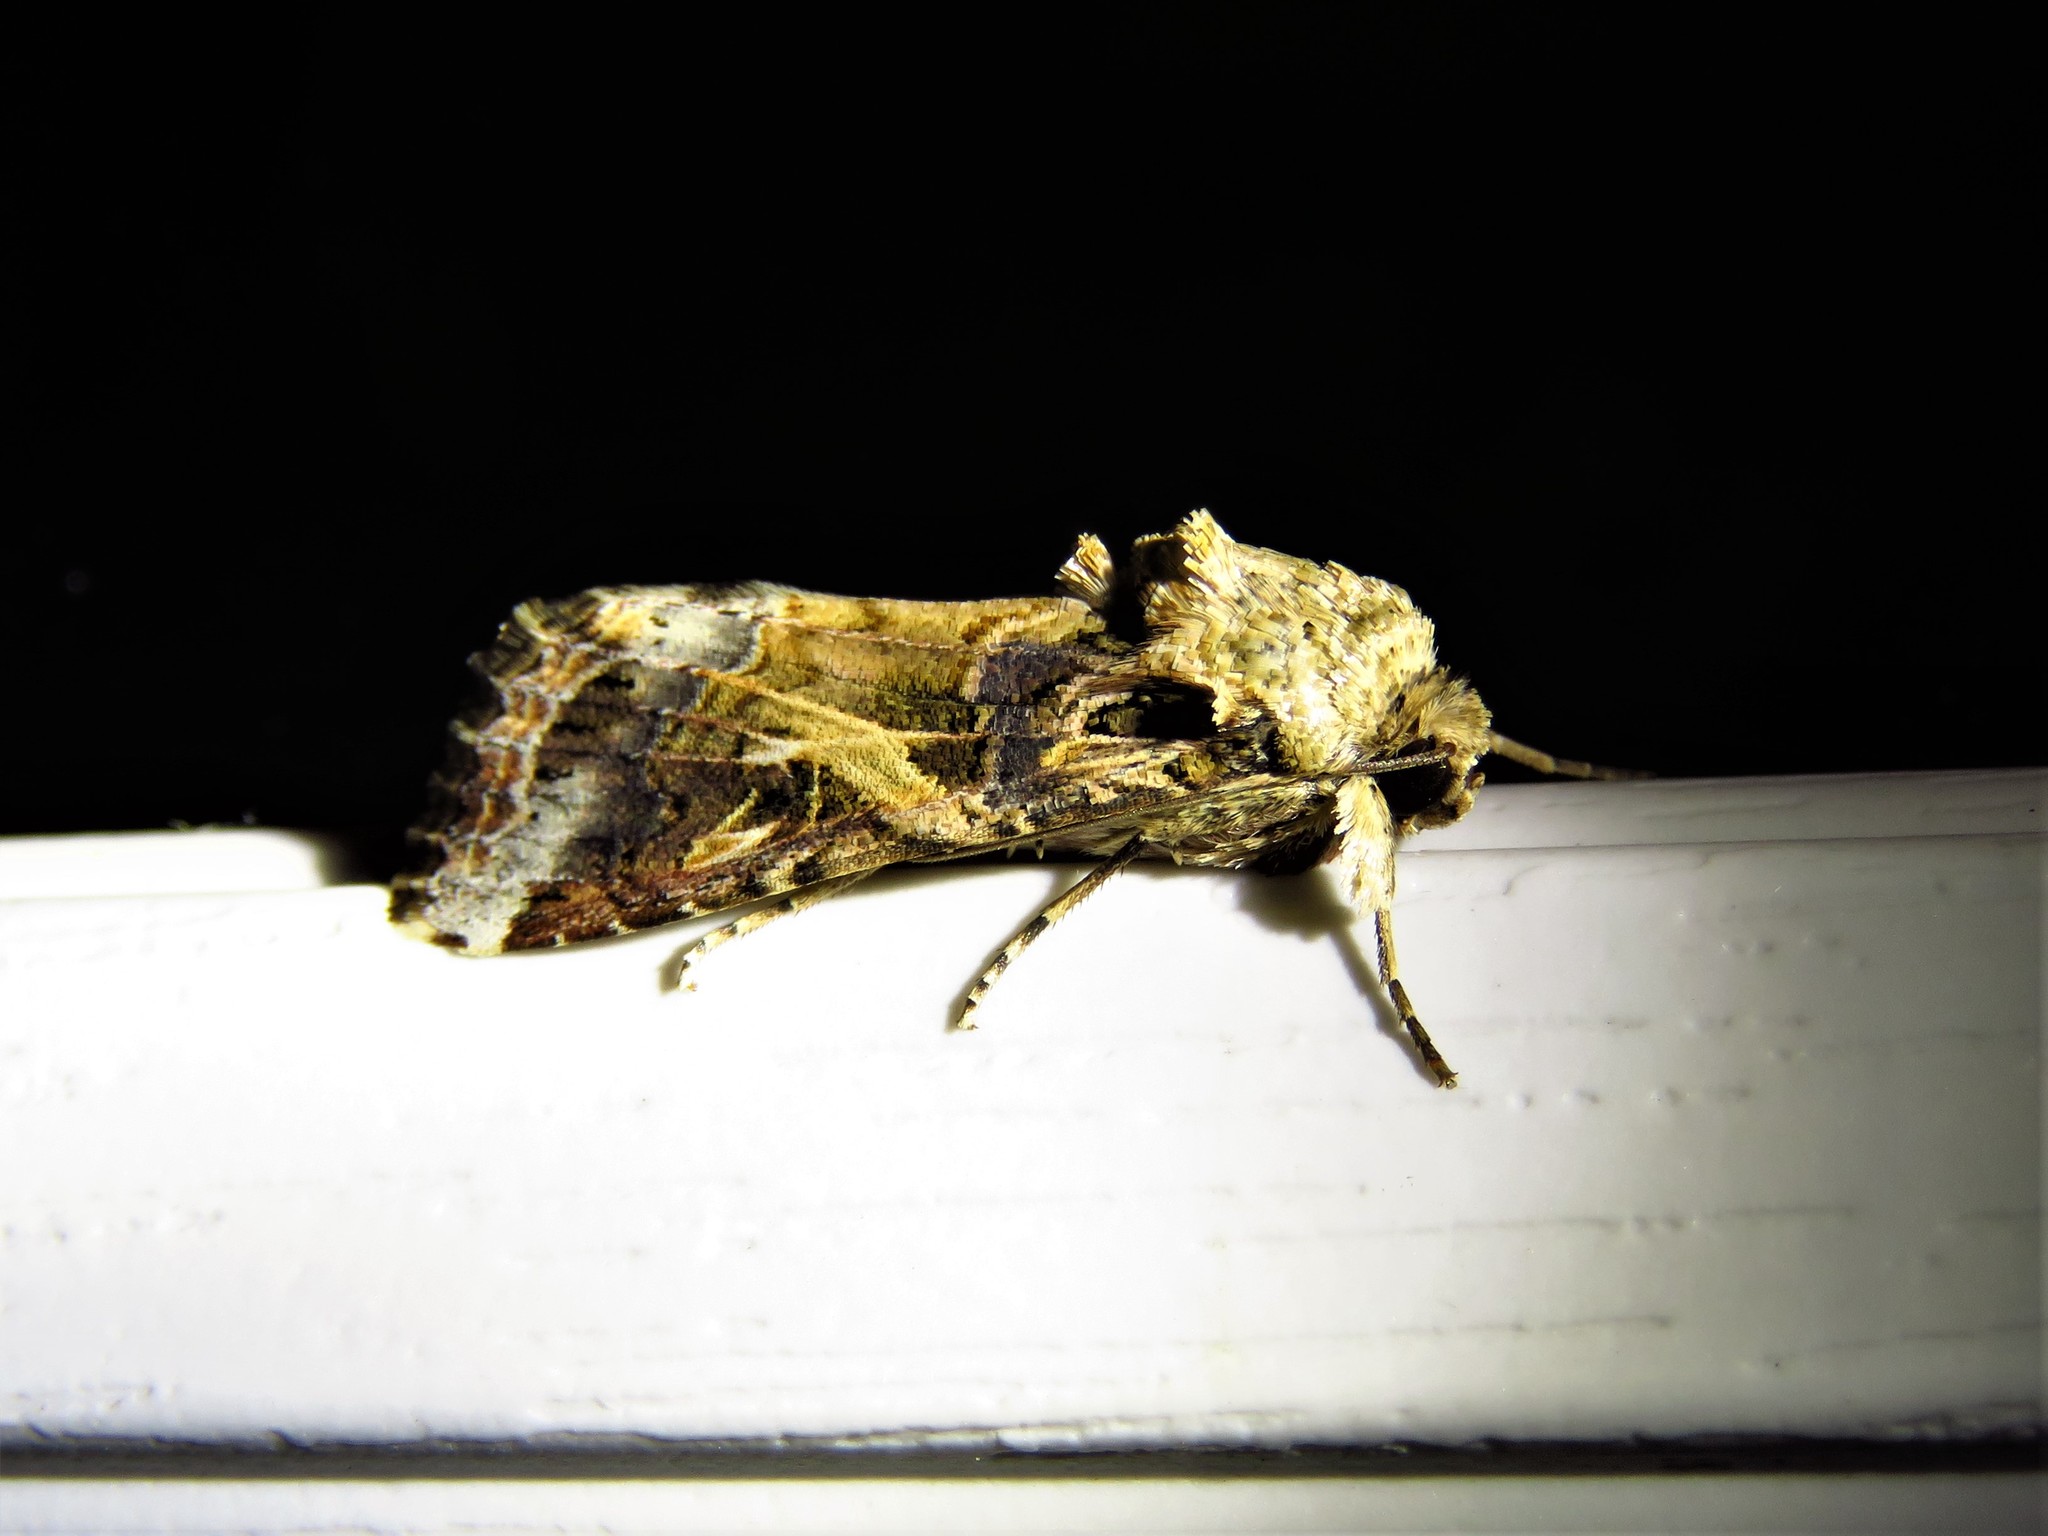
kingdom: Animalia
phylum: Arthropoda
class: Insecta
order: Lepidoptera
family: Noctuidae
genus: Spodoptera
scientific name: Spodoptera ornithogalli
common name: Yellow-striped armyworm
